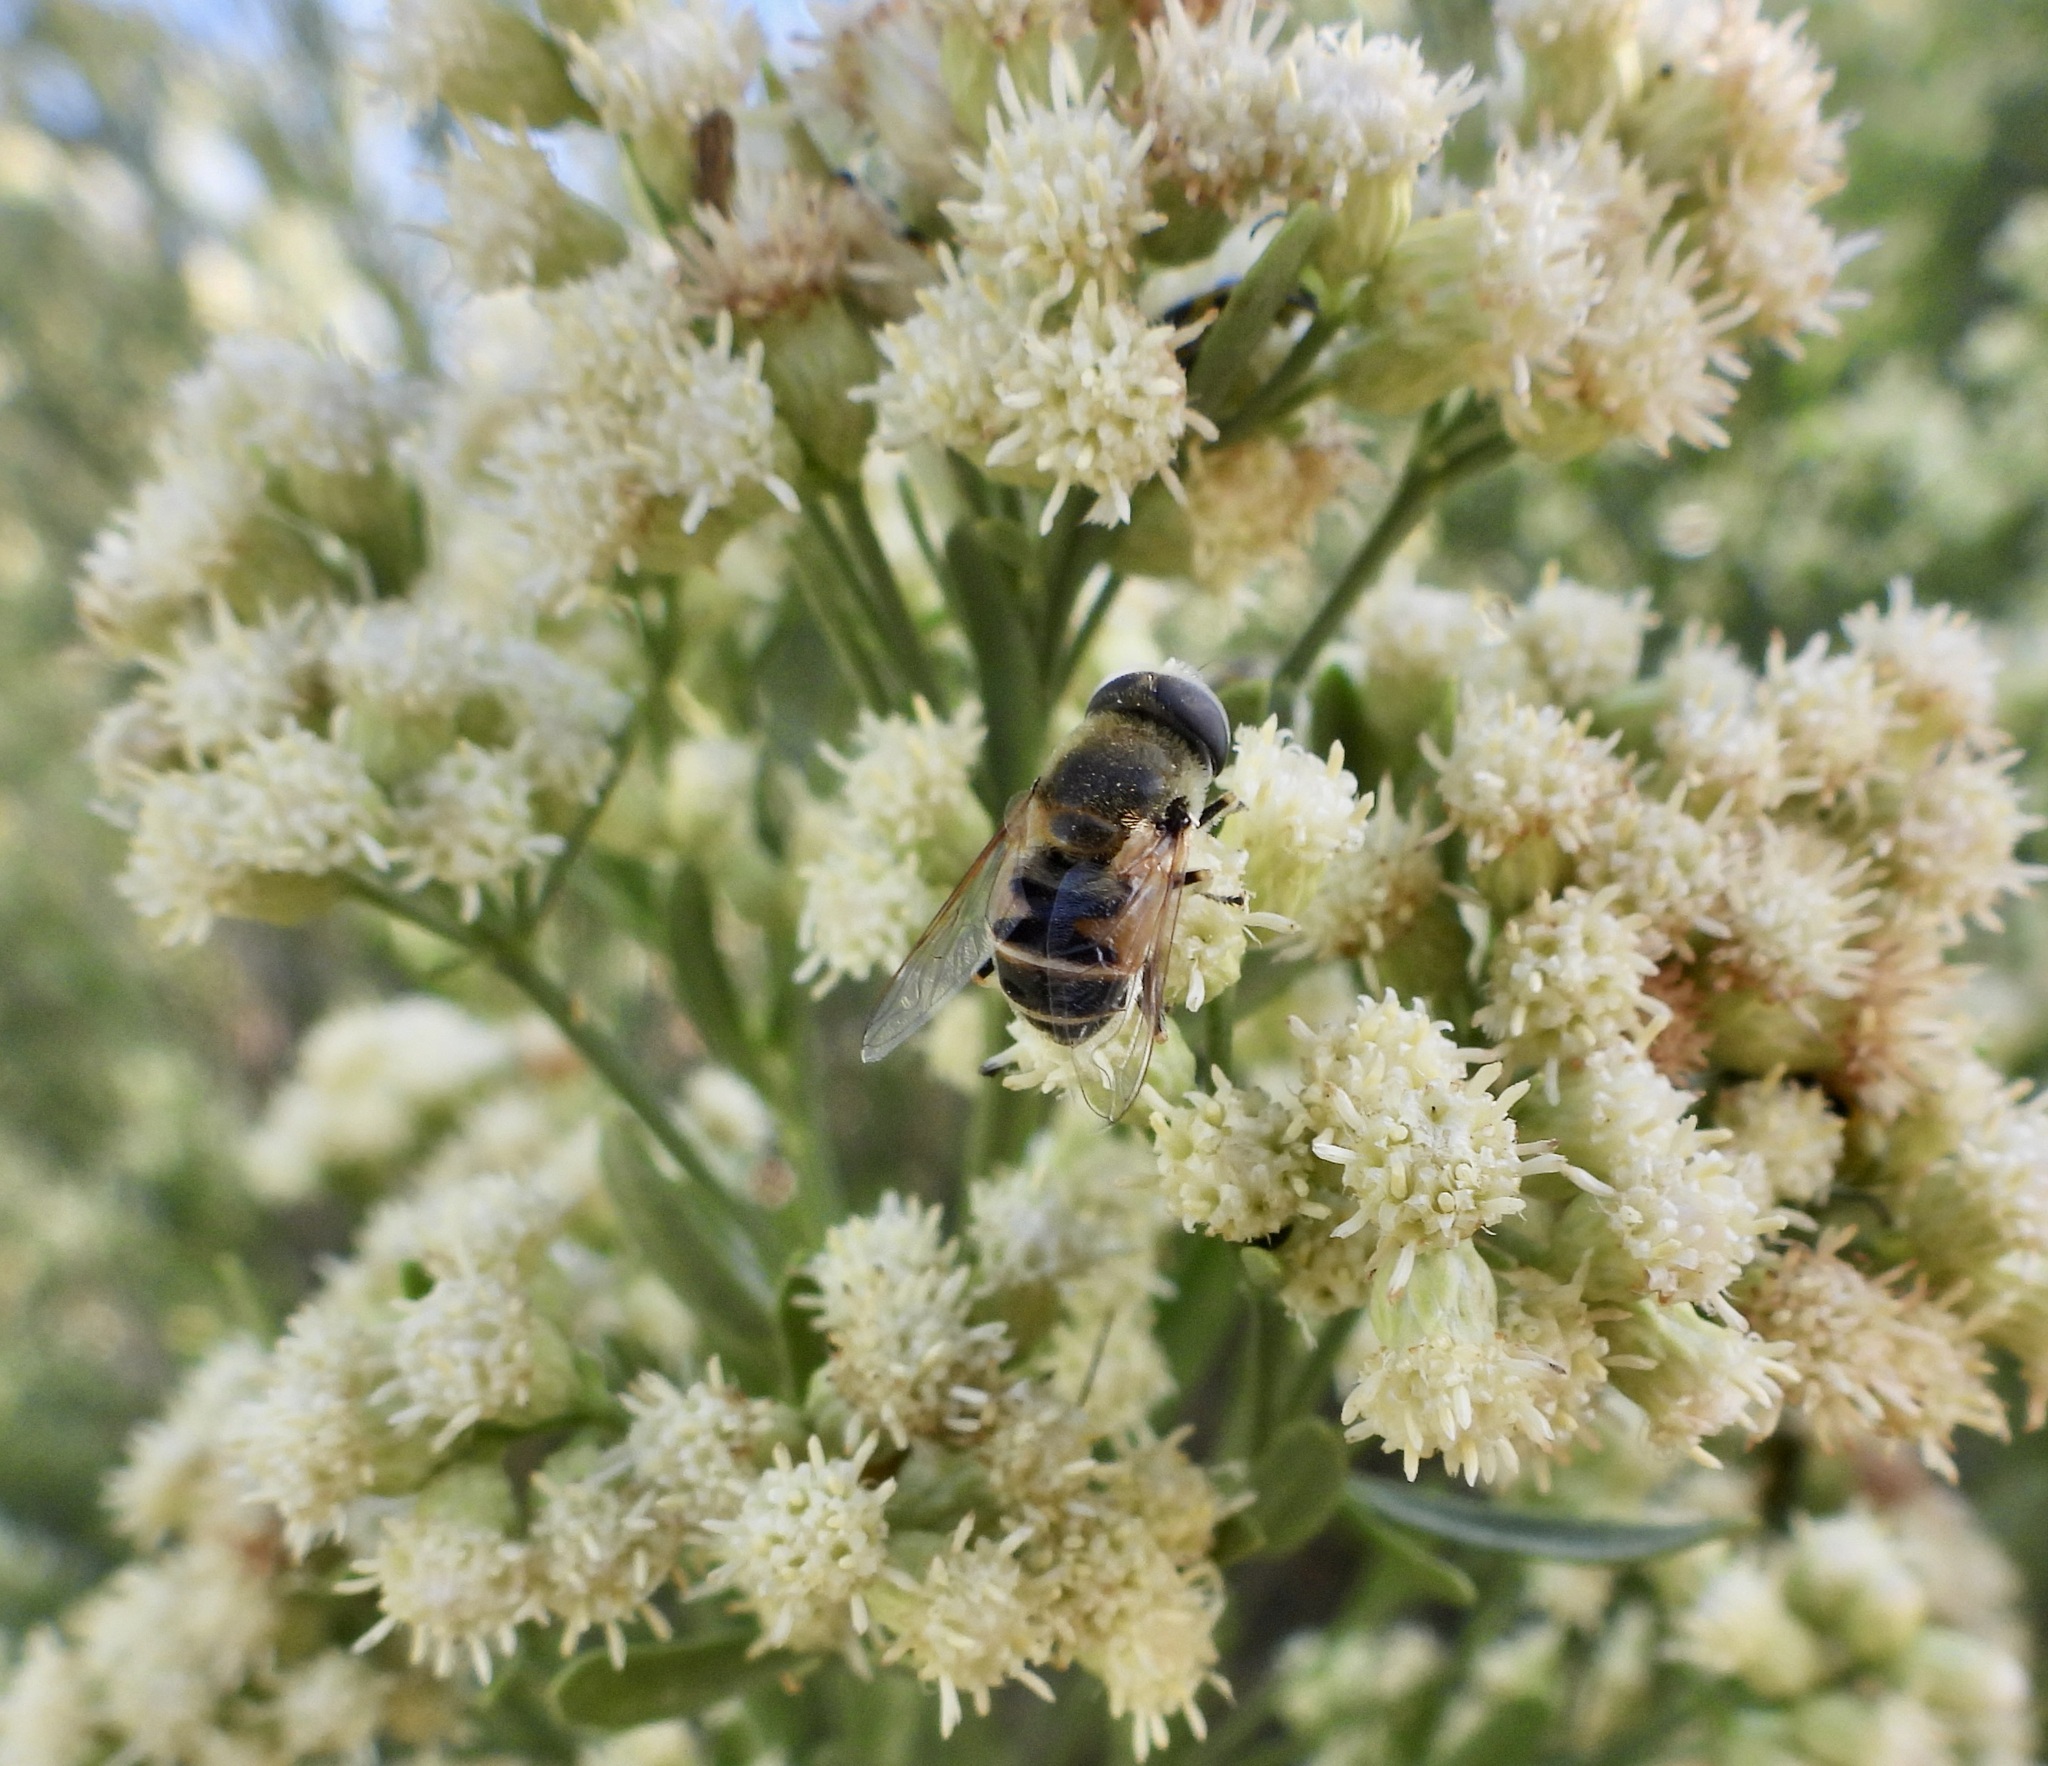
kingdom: Animalia
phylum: Arthropoda
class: Insecta
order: Diptera
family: Syrphidae
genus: Eristalis
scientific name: Eristalis stipator
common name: Yellow-shouldered drone fly
